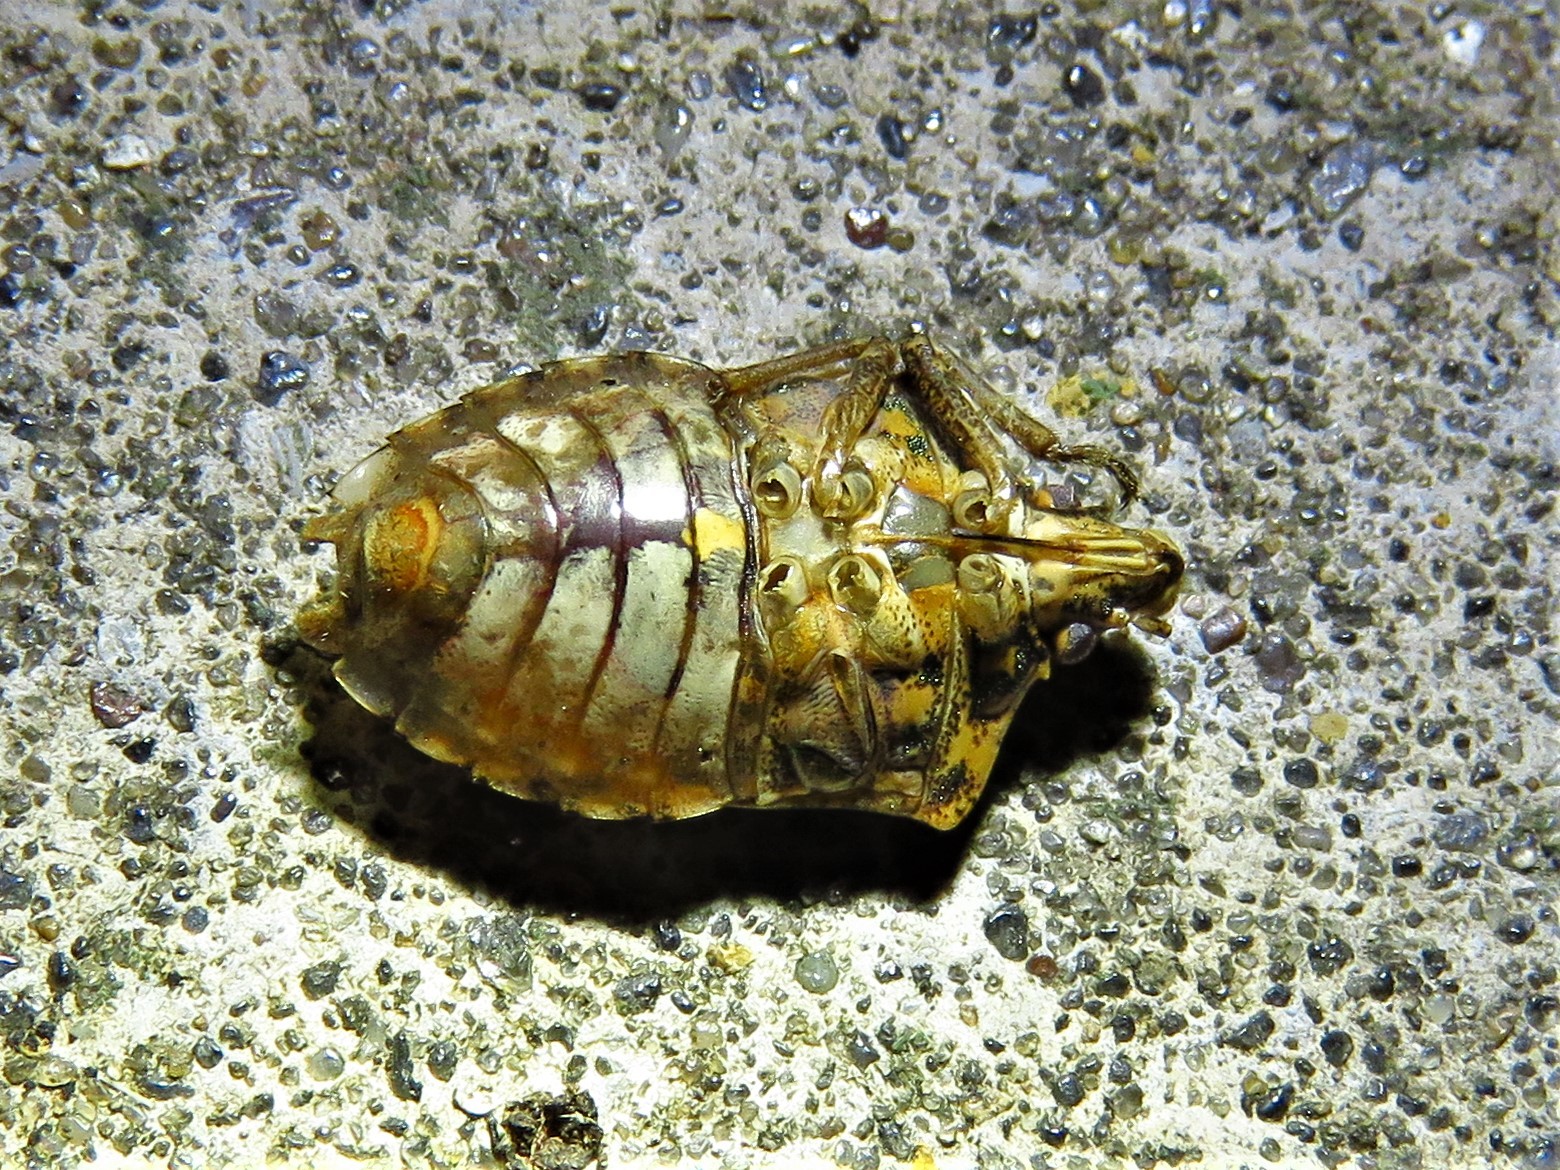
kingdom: Animalia
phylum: Arthropoda
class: Insecta
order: Hemiptera
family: Pentatomidae
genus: Halyomorpha
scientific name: Halyomorpha halys
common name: Brown marmorated stink bug
